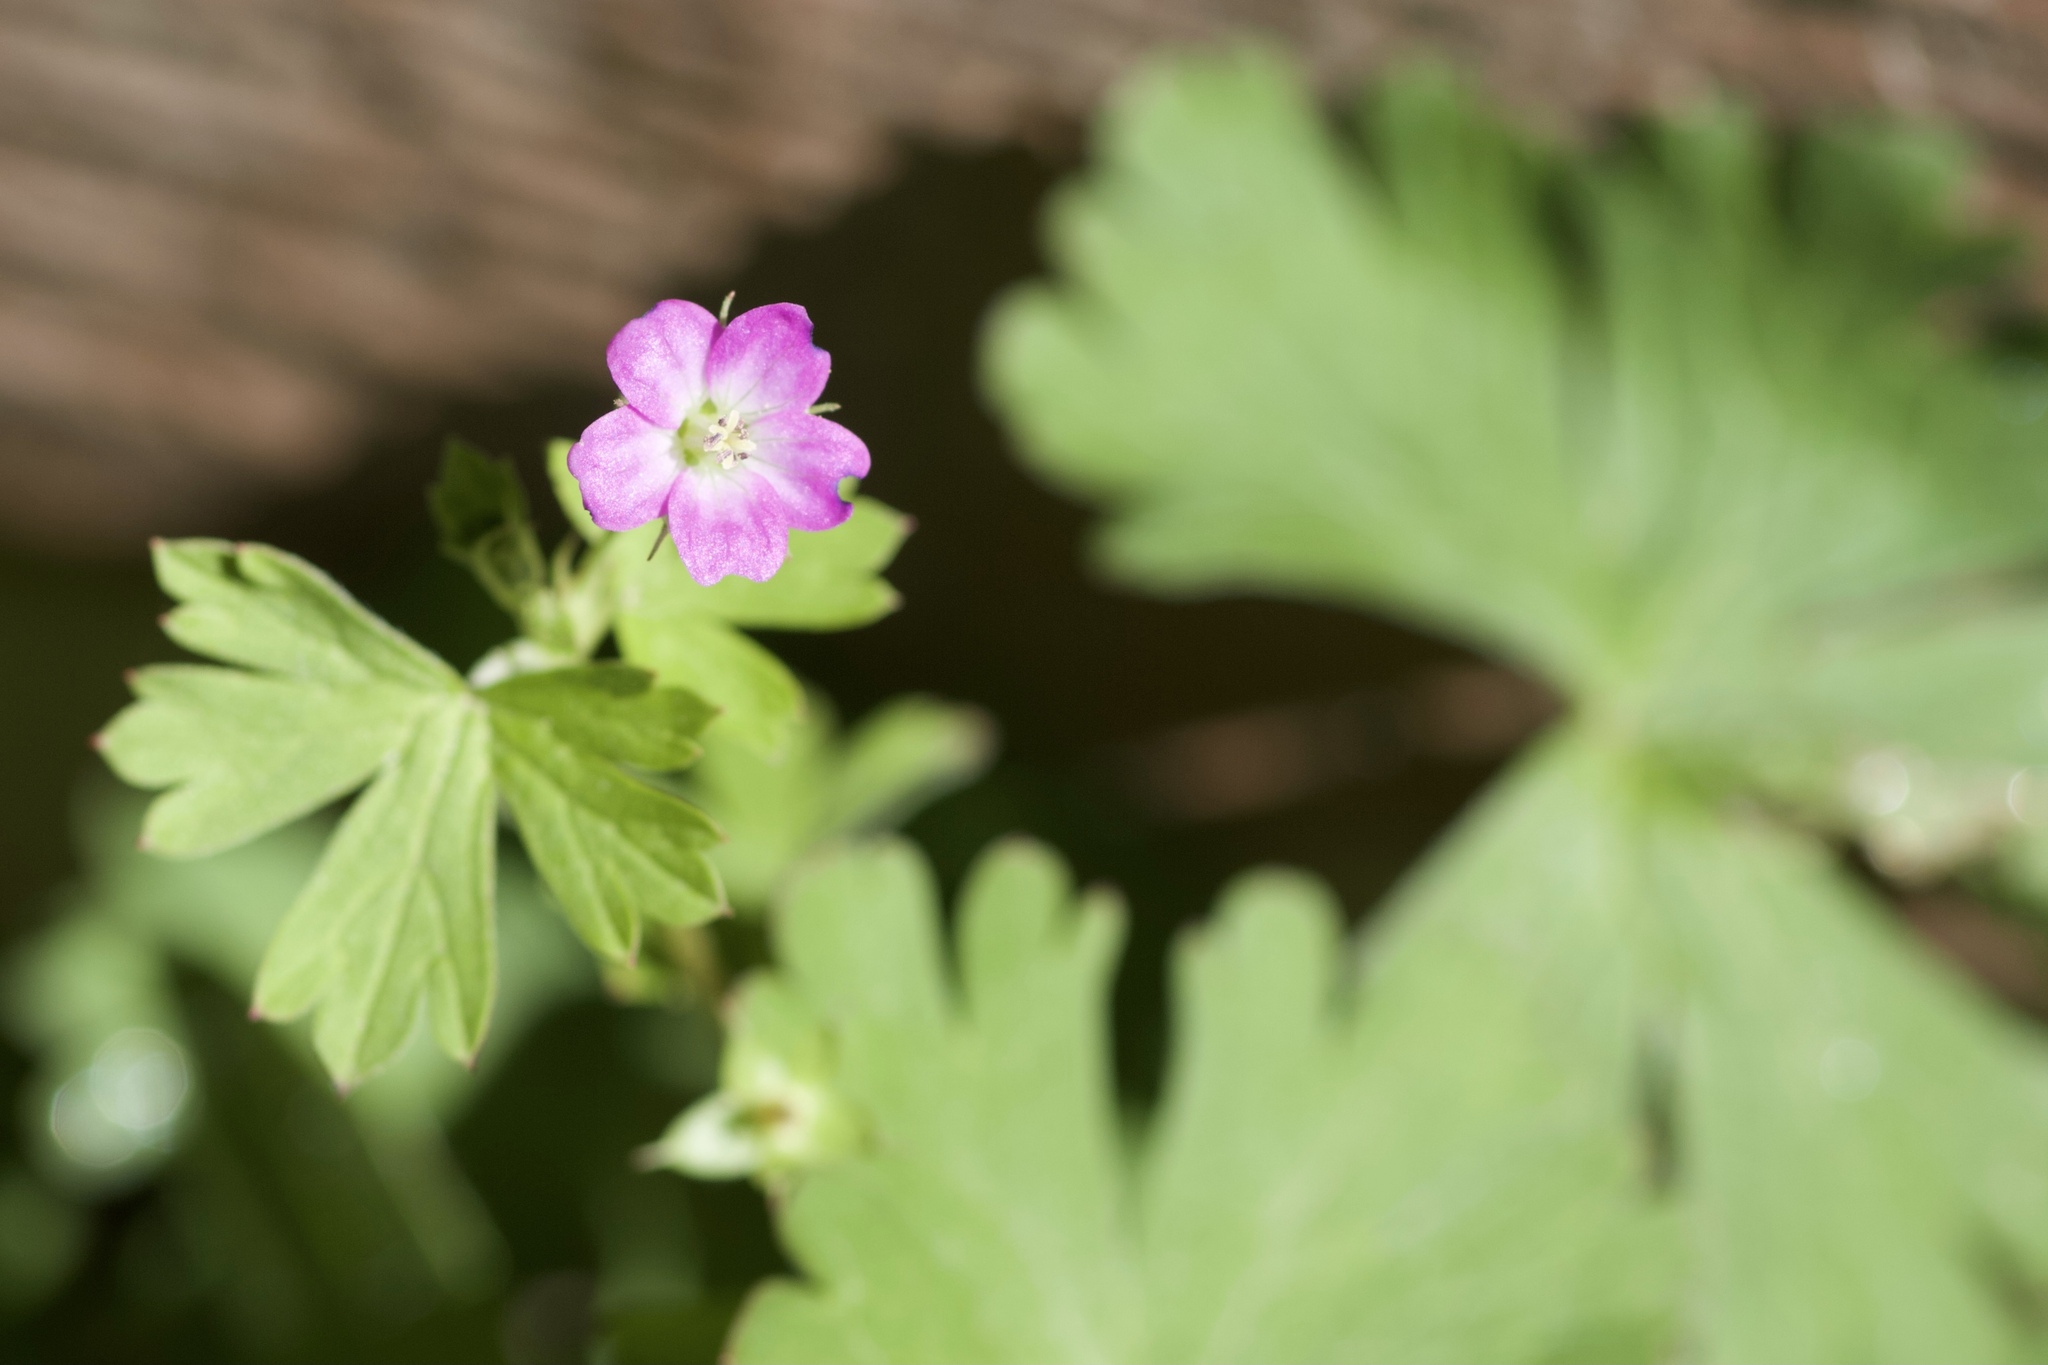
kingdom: Plantae
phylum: Tracheophyta
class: Magnoliopsida
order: Geraniales
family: Geraniaceae
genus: Geranium
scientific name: Geranium core-core
